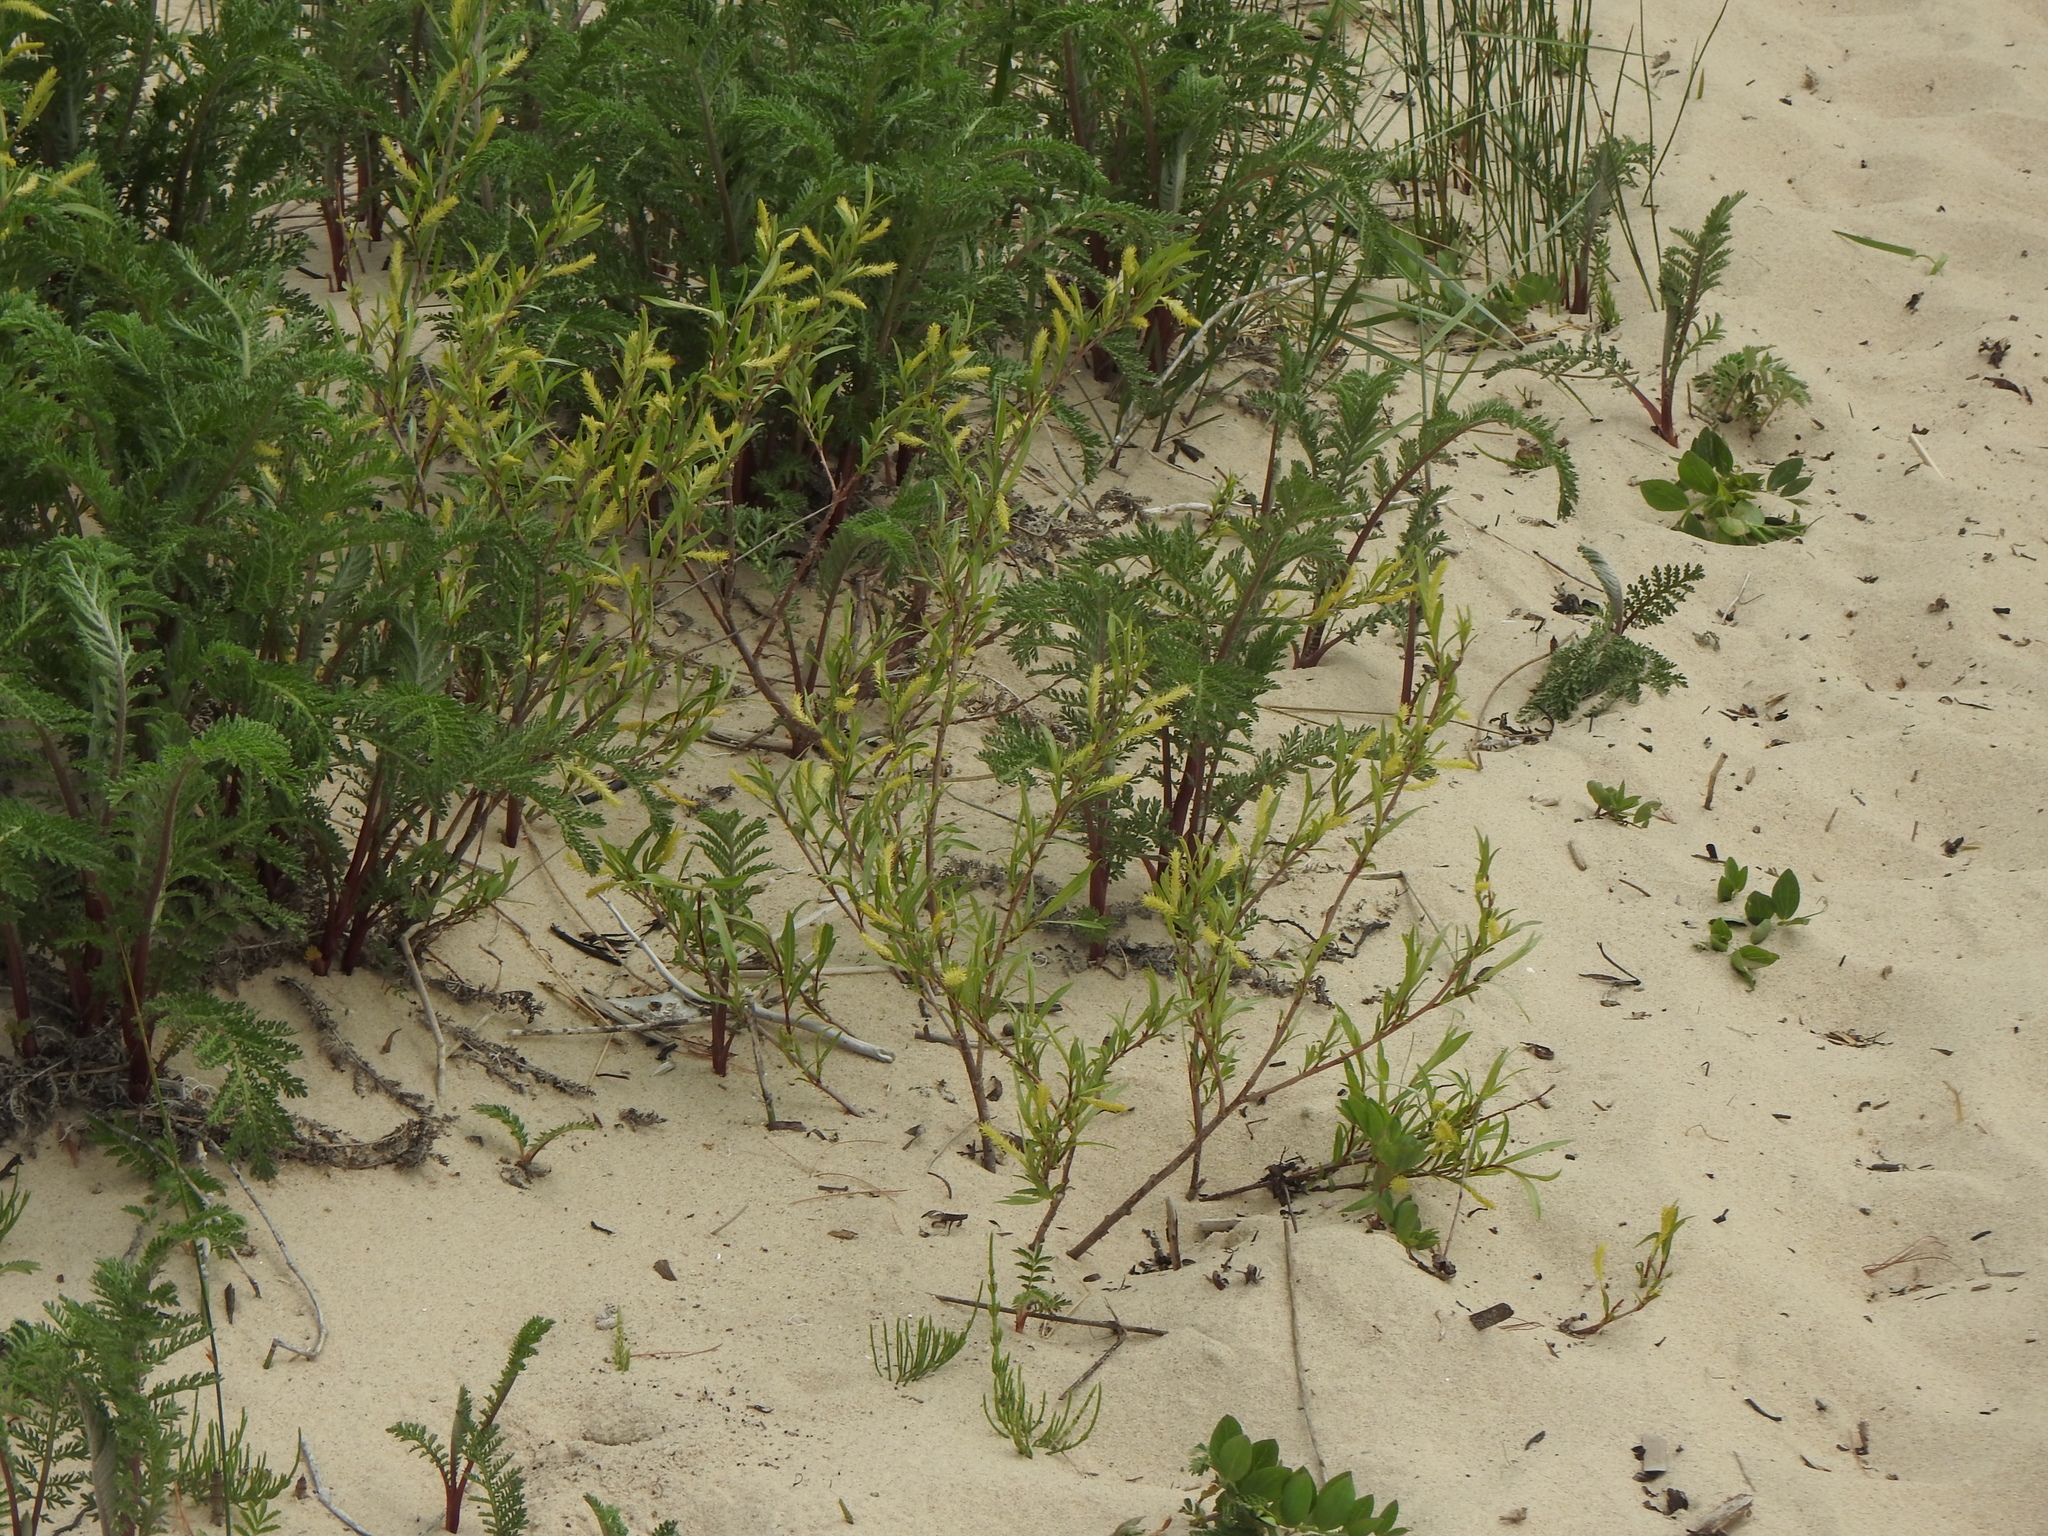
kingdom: Plantae
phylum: Tracheophyta
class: Magnoliopsida
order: Asterales
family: Asteraceae
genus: Tanacetum
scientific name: Tanacetum bipinnatum
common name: Dwarf tansy
